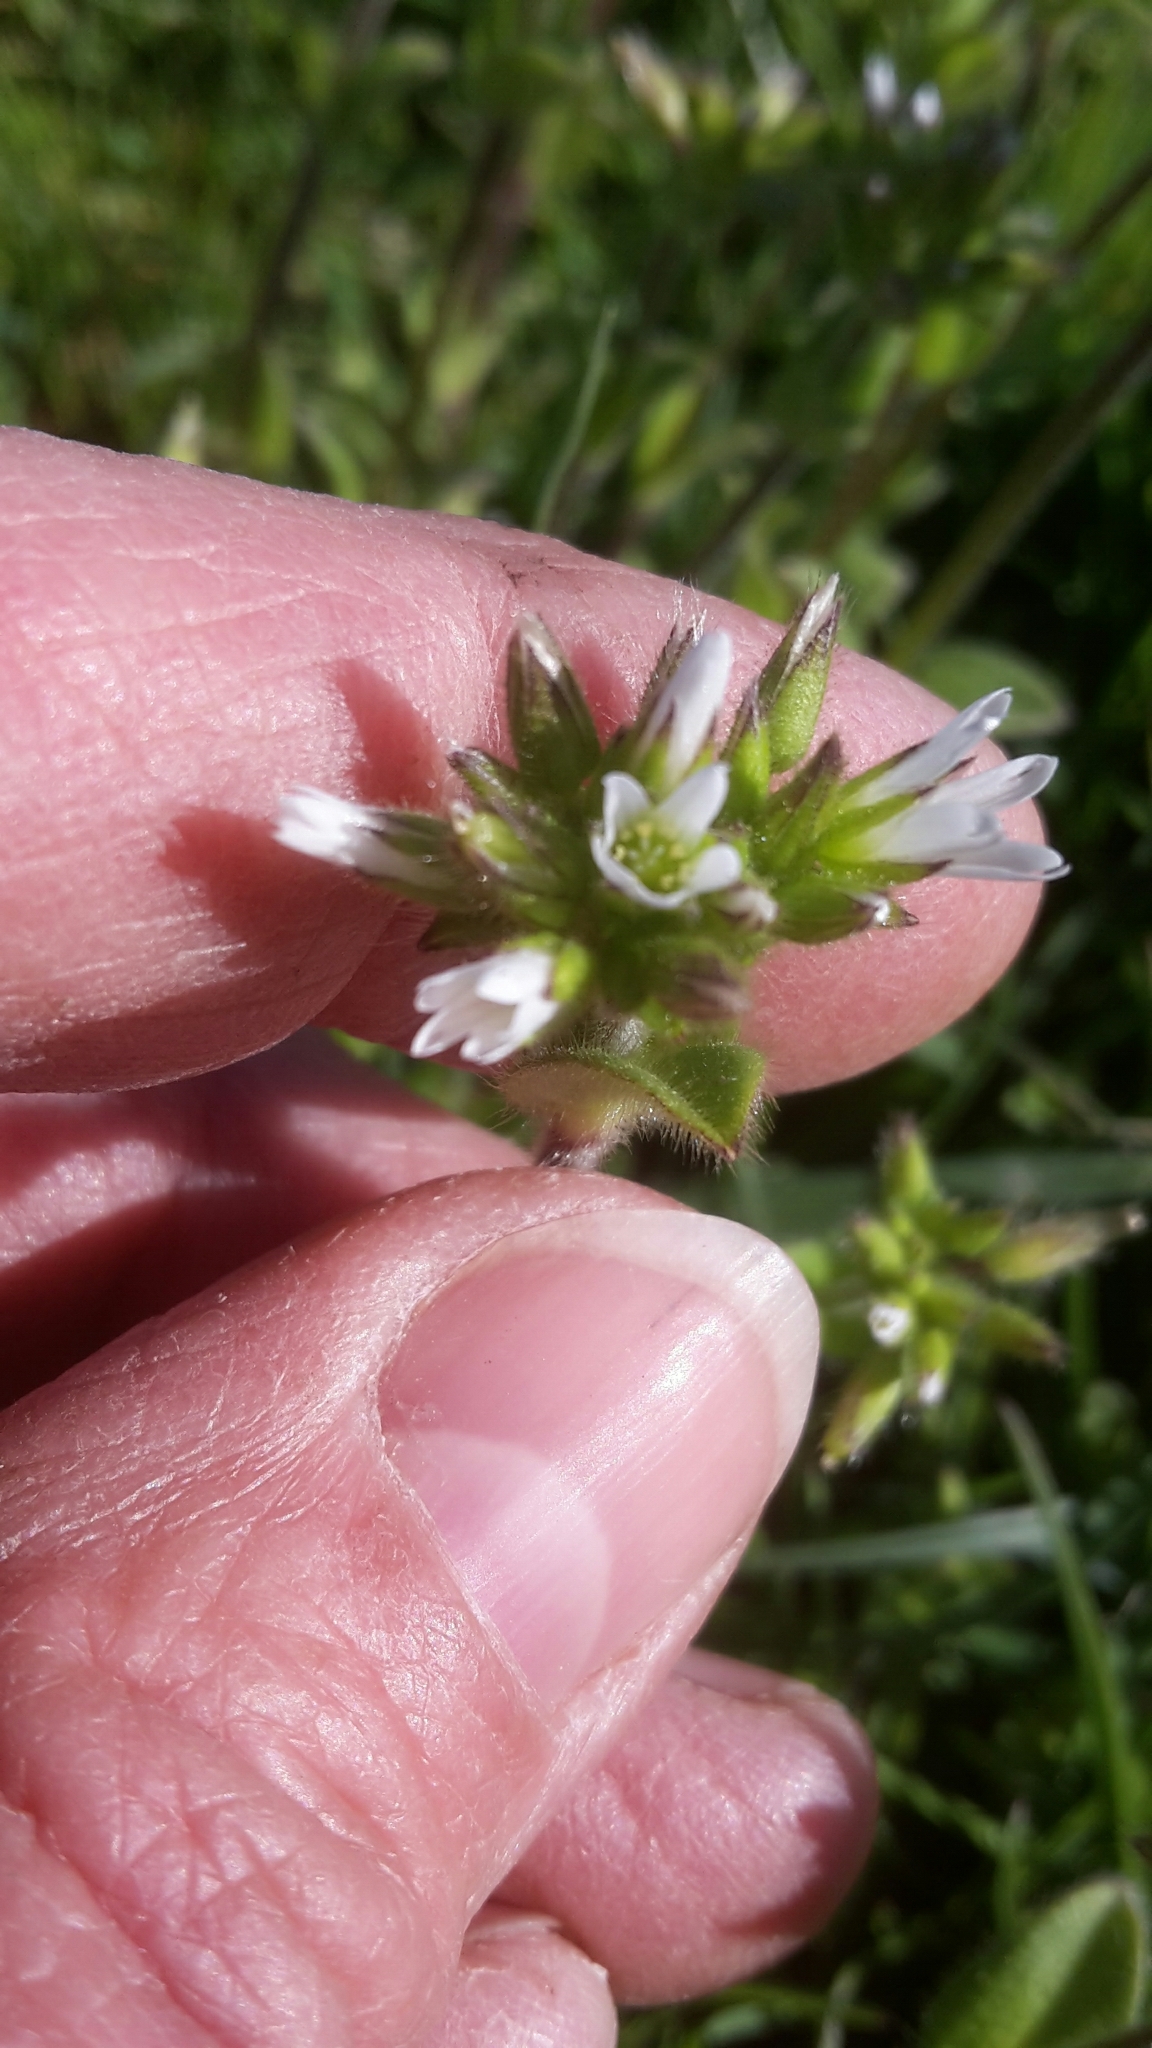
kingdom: Plantae
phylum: Tracheophyta
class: Magnoliopsida
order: Caryophyllales
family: Caryophyllaceae
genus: Cerastium
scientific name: Cerastium glomeratum
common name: Sticky chickweed
